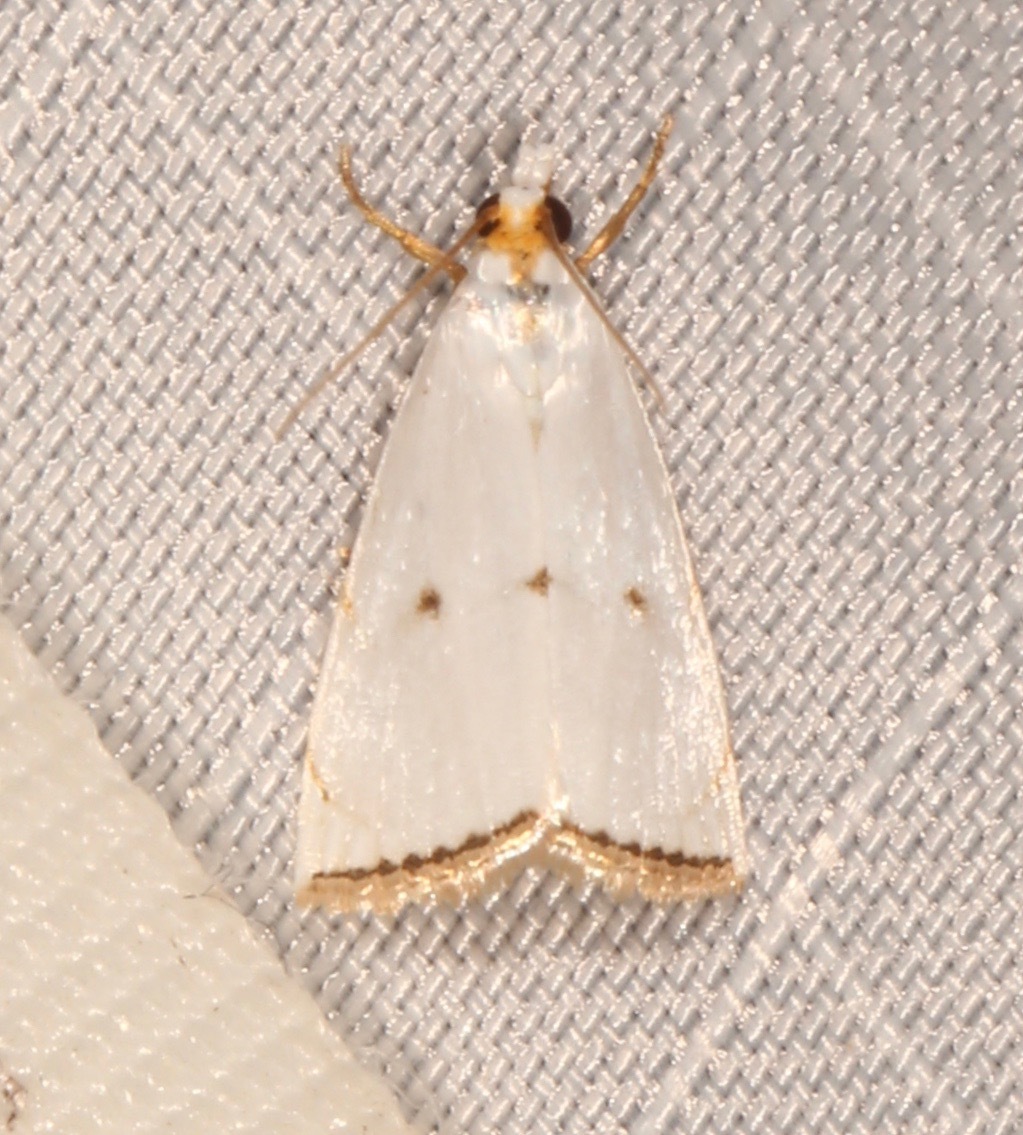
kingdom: Animalia
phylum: Arthropoda
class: Insecta
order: Lepidoptera
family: Crambidae
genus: Argyria
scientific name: Argyria pusillalis
